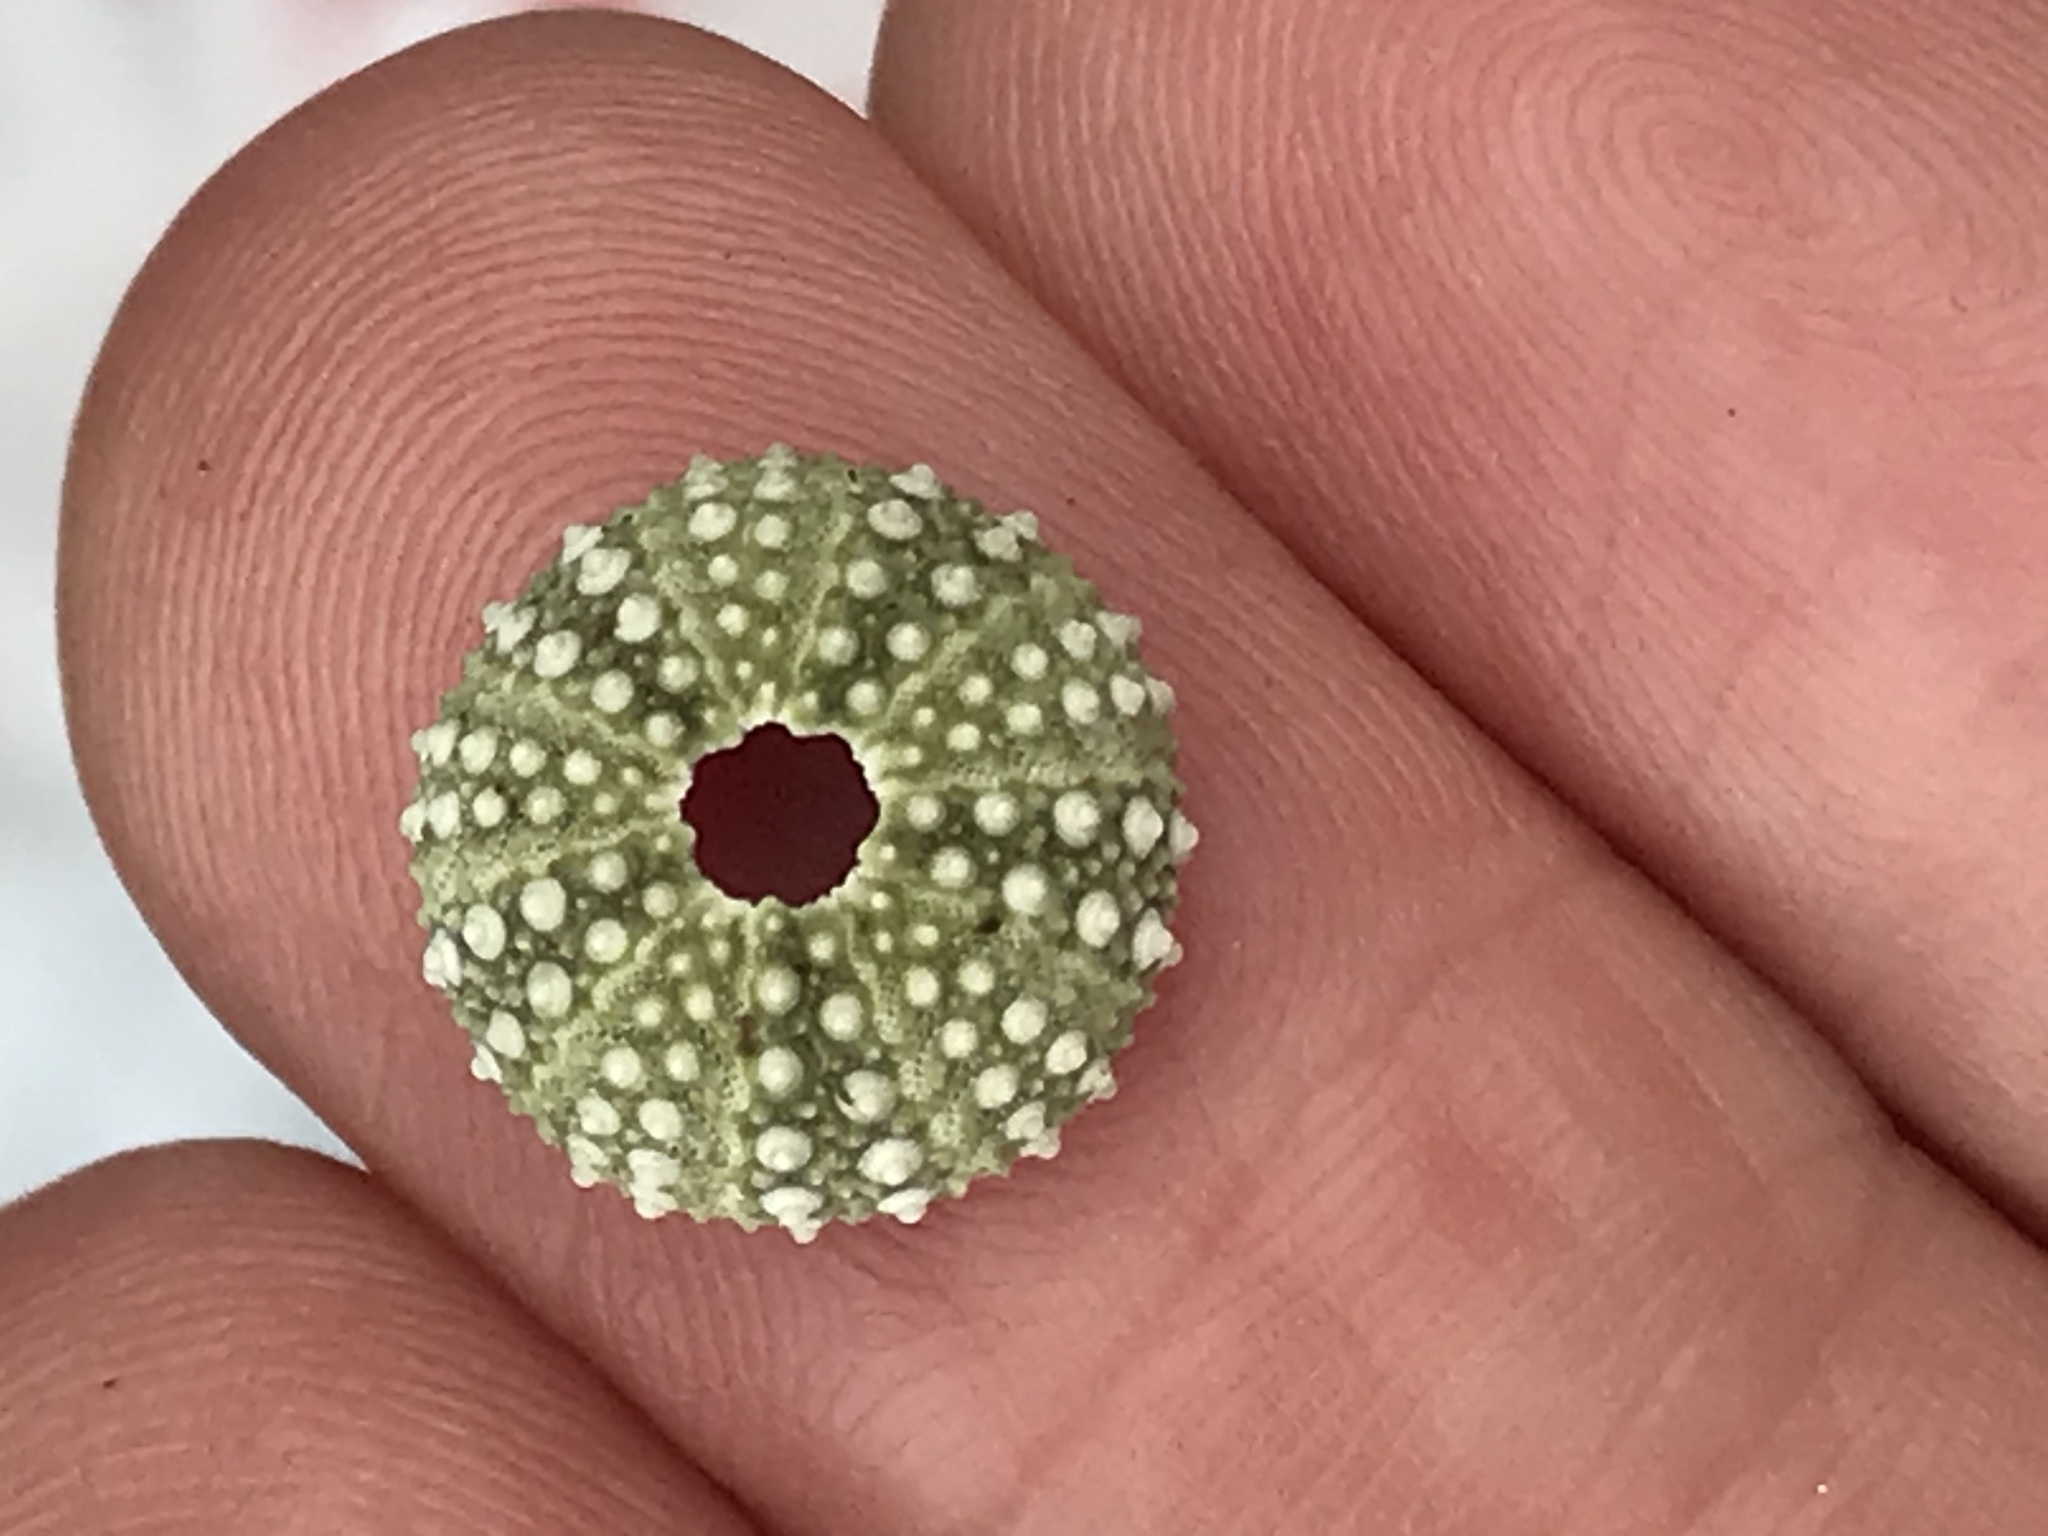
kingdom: Animalia
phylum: Echinodermata
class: Echinoidea
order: Camarodonta
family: Strongylocentrotidae
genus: Strongylocentrotus
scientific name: Strongylocentrotus purpuratus
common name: Purple sea urchin
